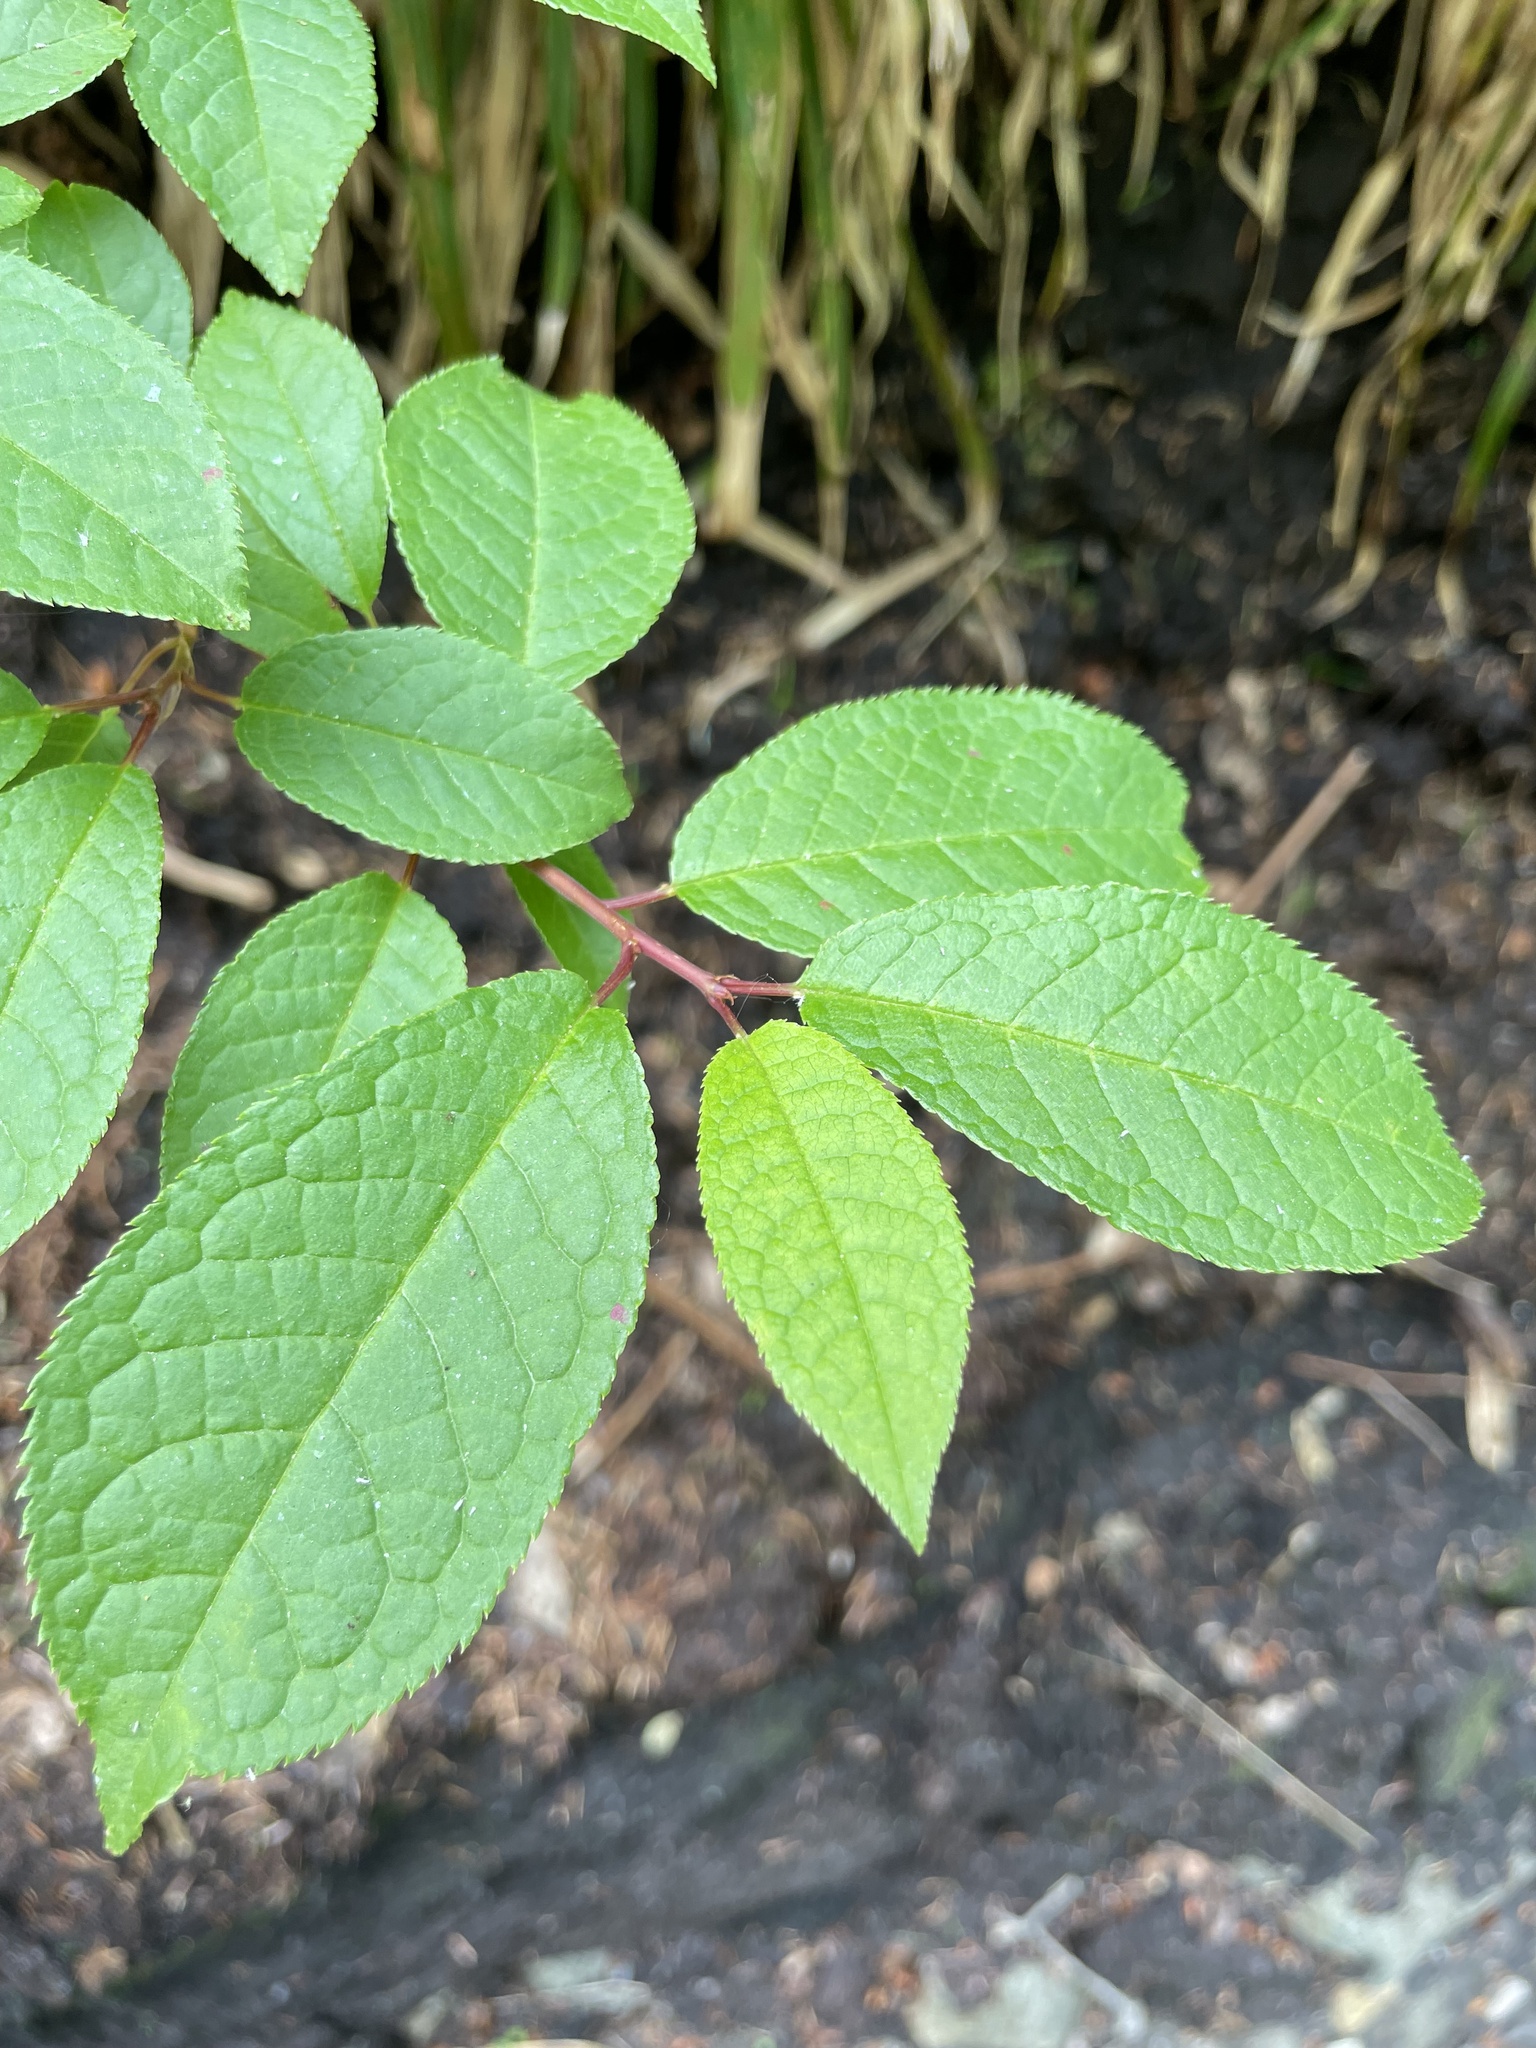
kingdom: Plantae
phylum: Tracheophyta
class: Magnoliopsida
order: Rosales
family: Rosaceae
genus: Prunus
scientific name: Prunus padus
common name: Bird cherry
